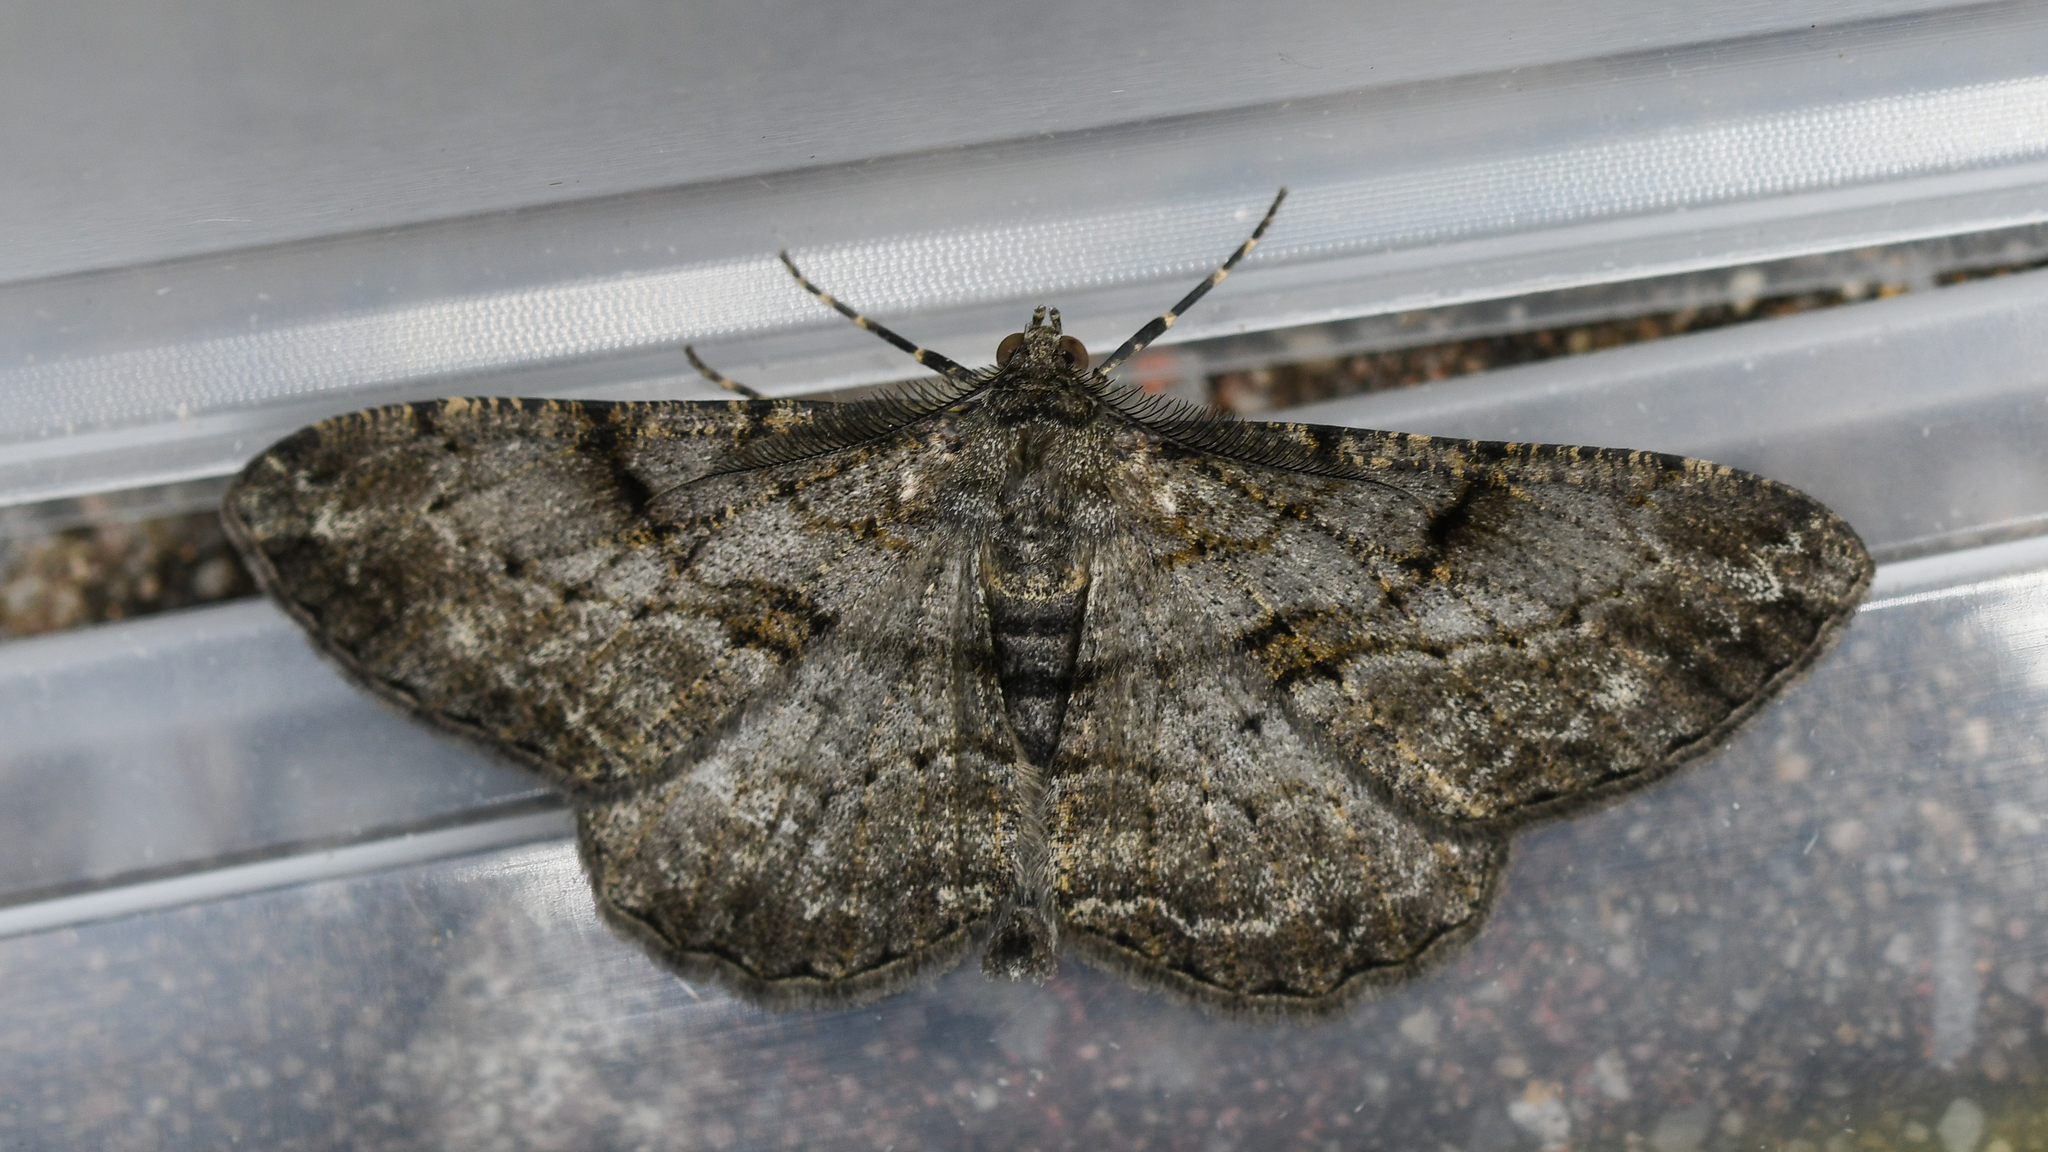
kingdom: Animalia
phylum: Arthropoda
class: Insecta
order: Lepidoptera
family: Geometridae
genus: Peribatodes
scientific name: Peribatodes rhomboidaria
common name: Willow beauty
